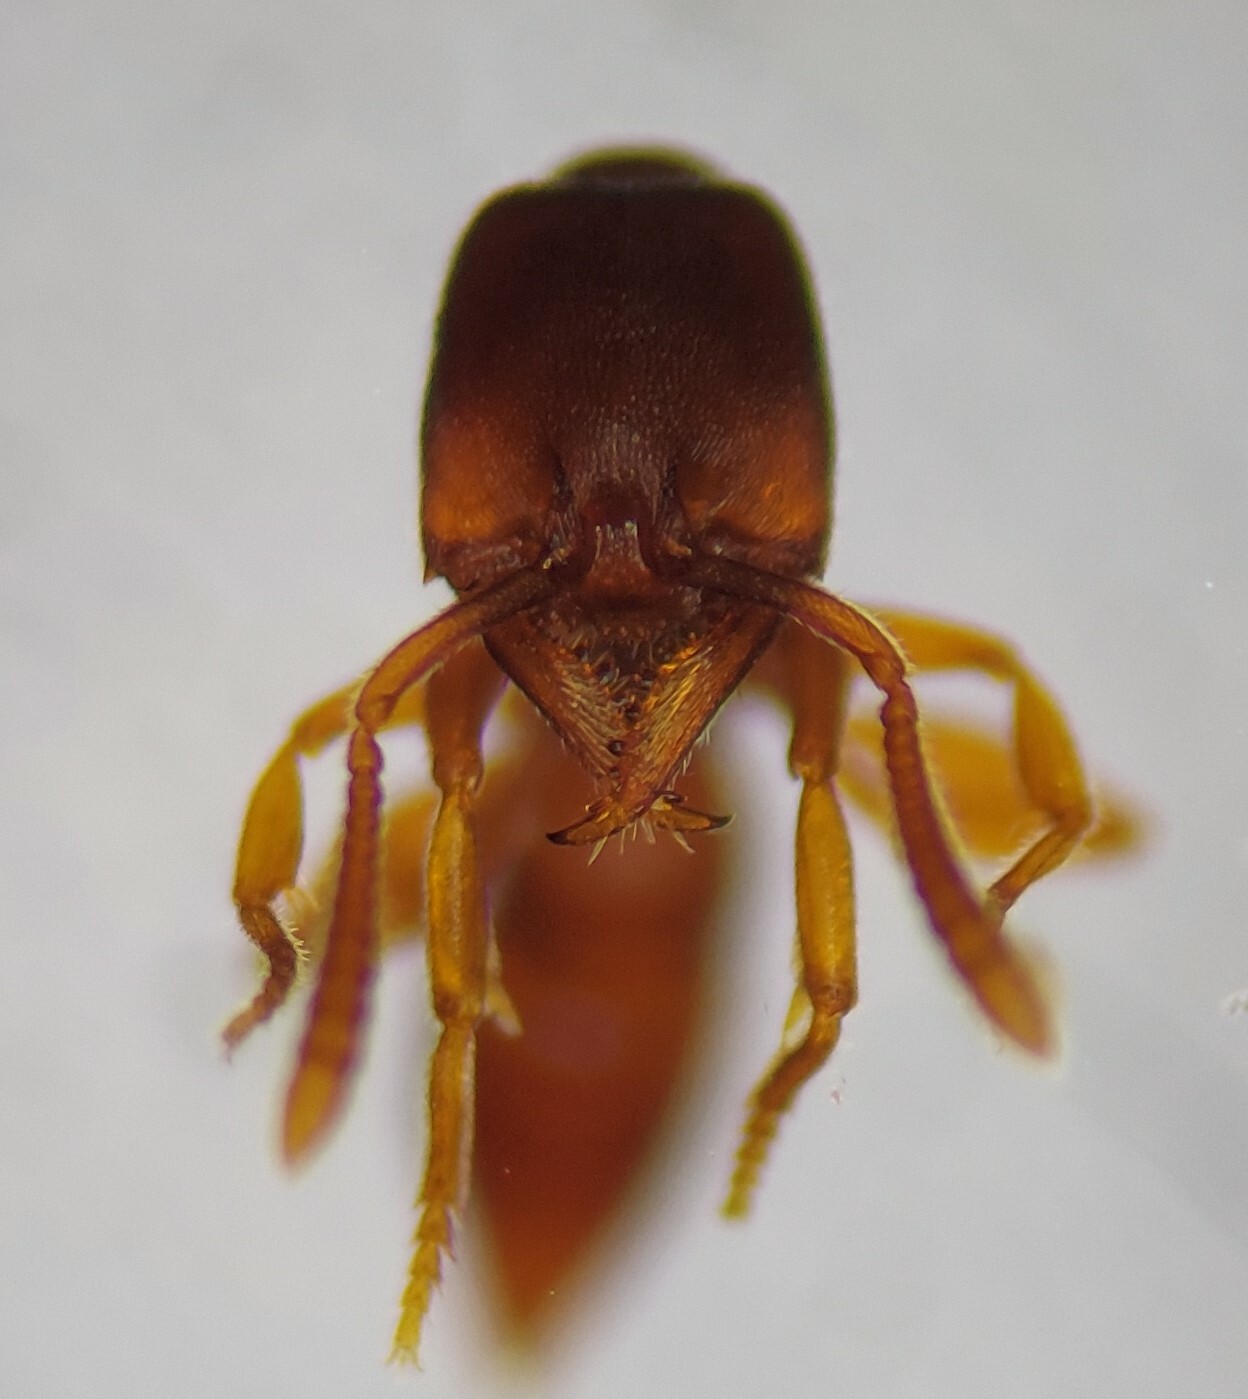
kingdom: Animalia
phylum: Arthropoda
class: Insecta
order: Hymenoptera
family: Formicidae
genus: Stigmatomma
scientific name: Stigmatomma pallipes
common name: Vampire ant
